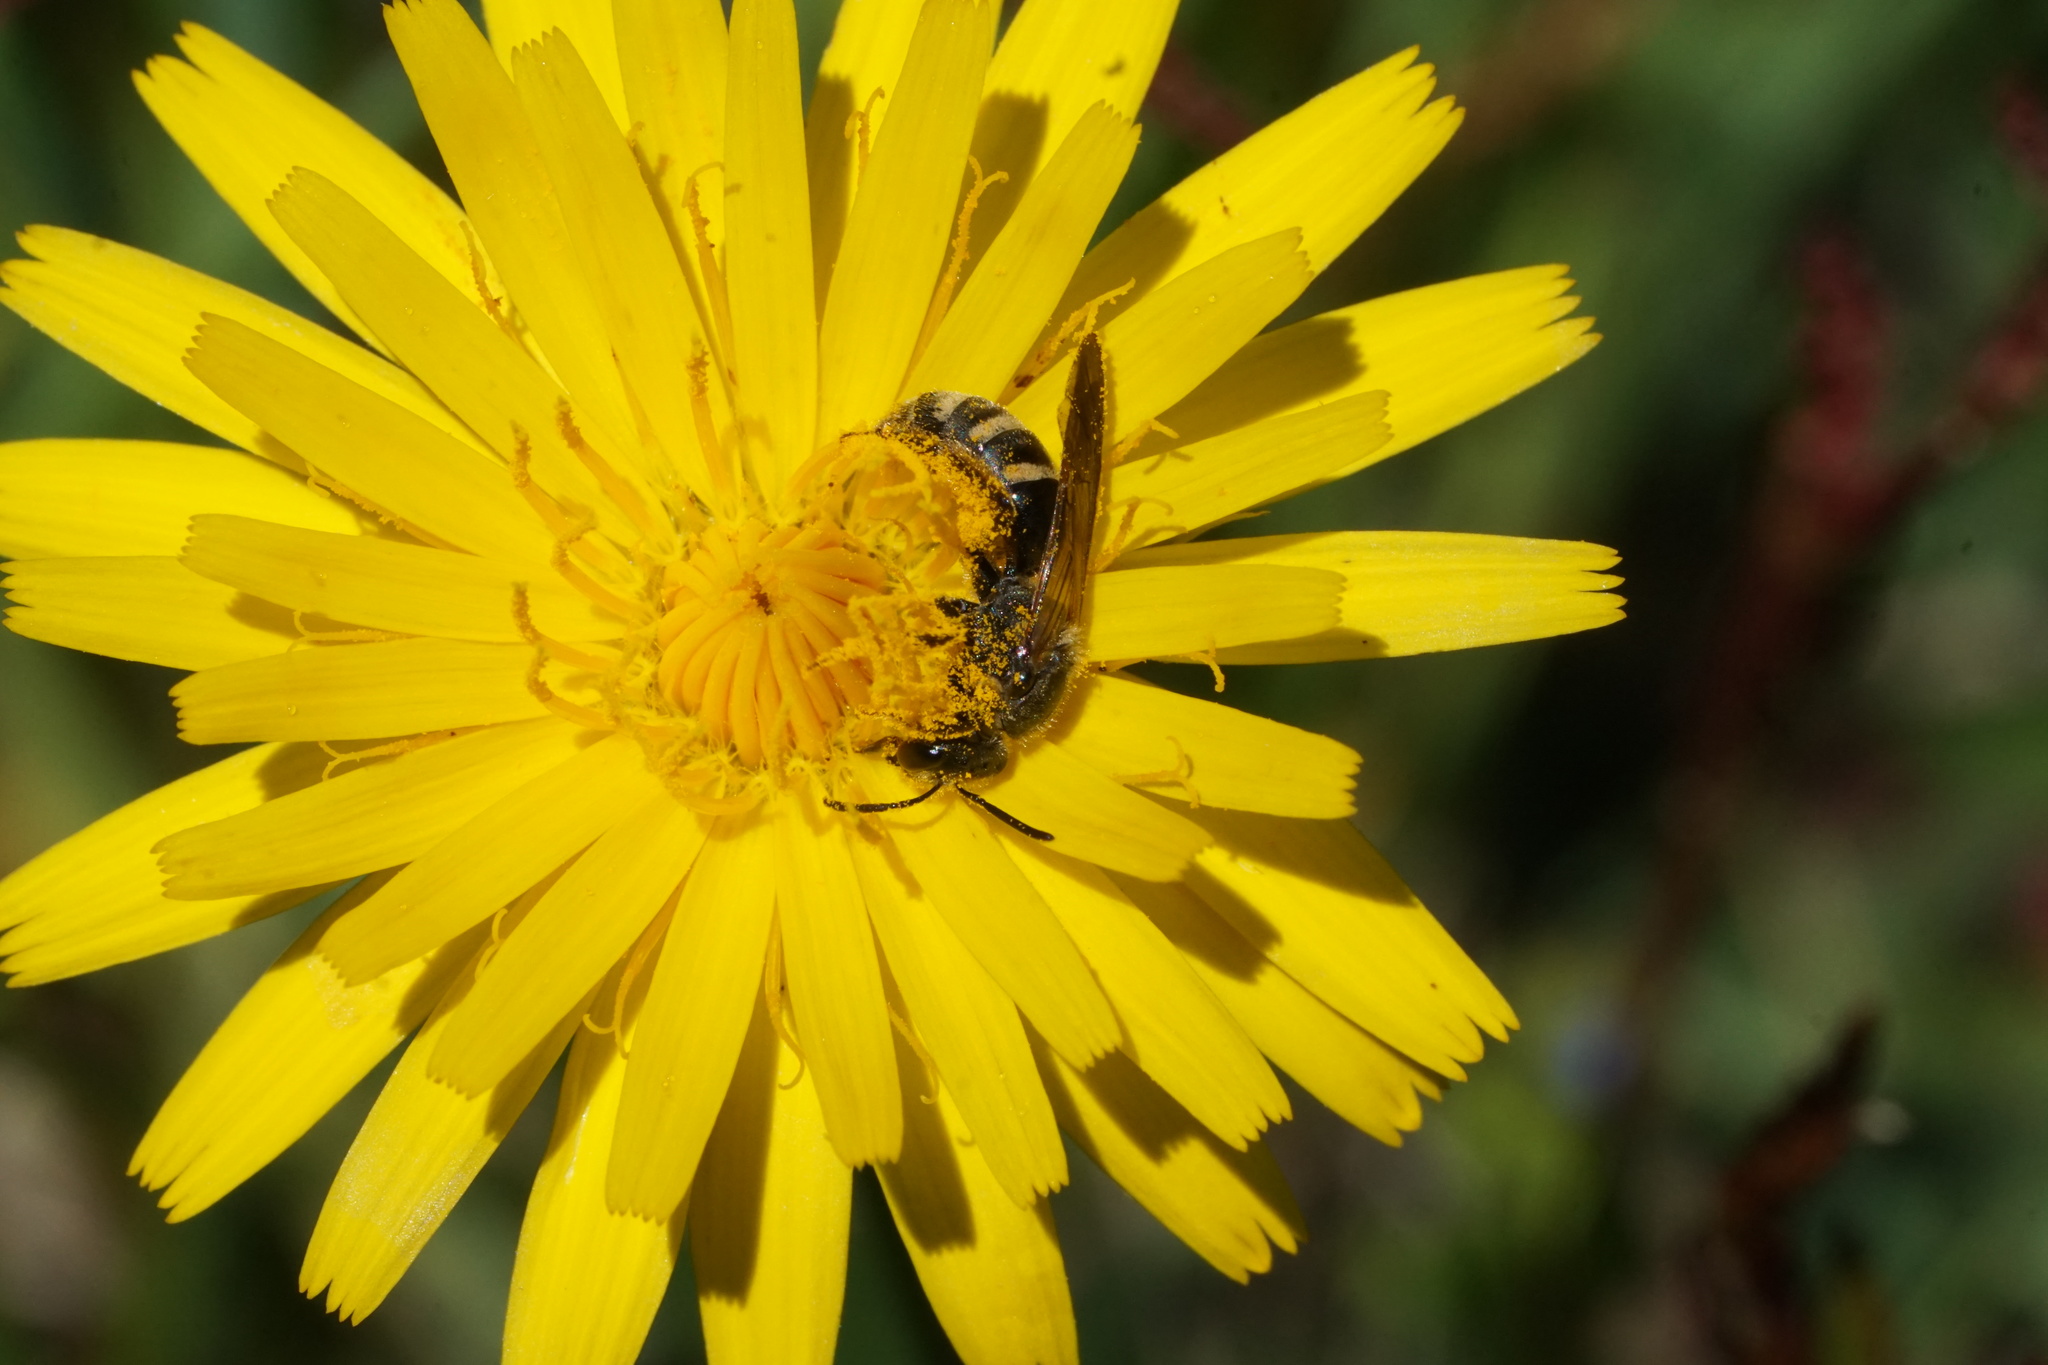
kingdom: Animalia
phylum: Arthropoda
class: Insecta
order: Hymenoptera
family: Halictidae
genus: Lasioglossum
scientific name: Lasioglossum fuscipenne
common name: Brown-winged sweat bee
